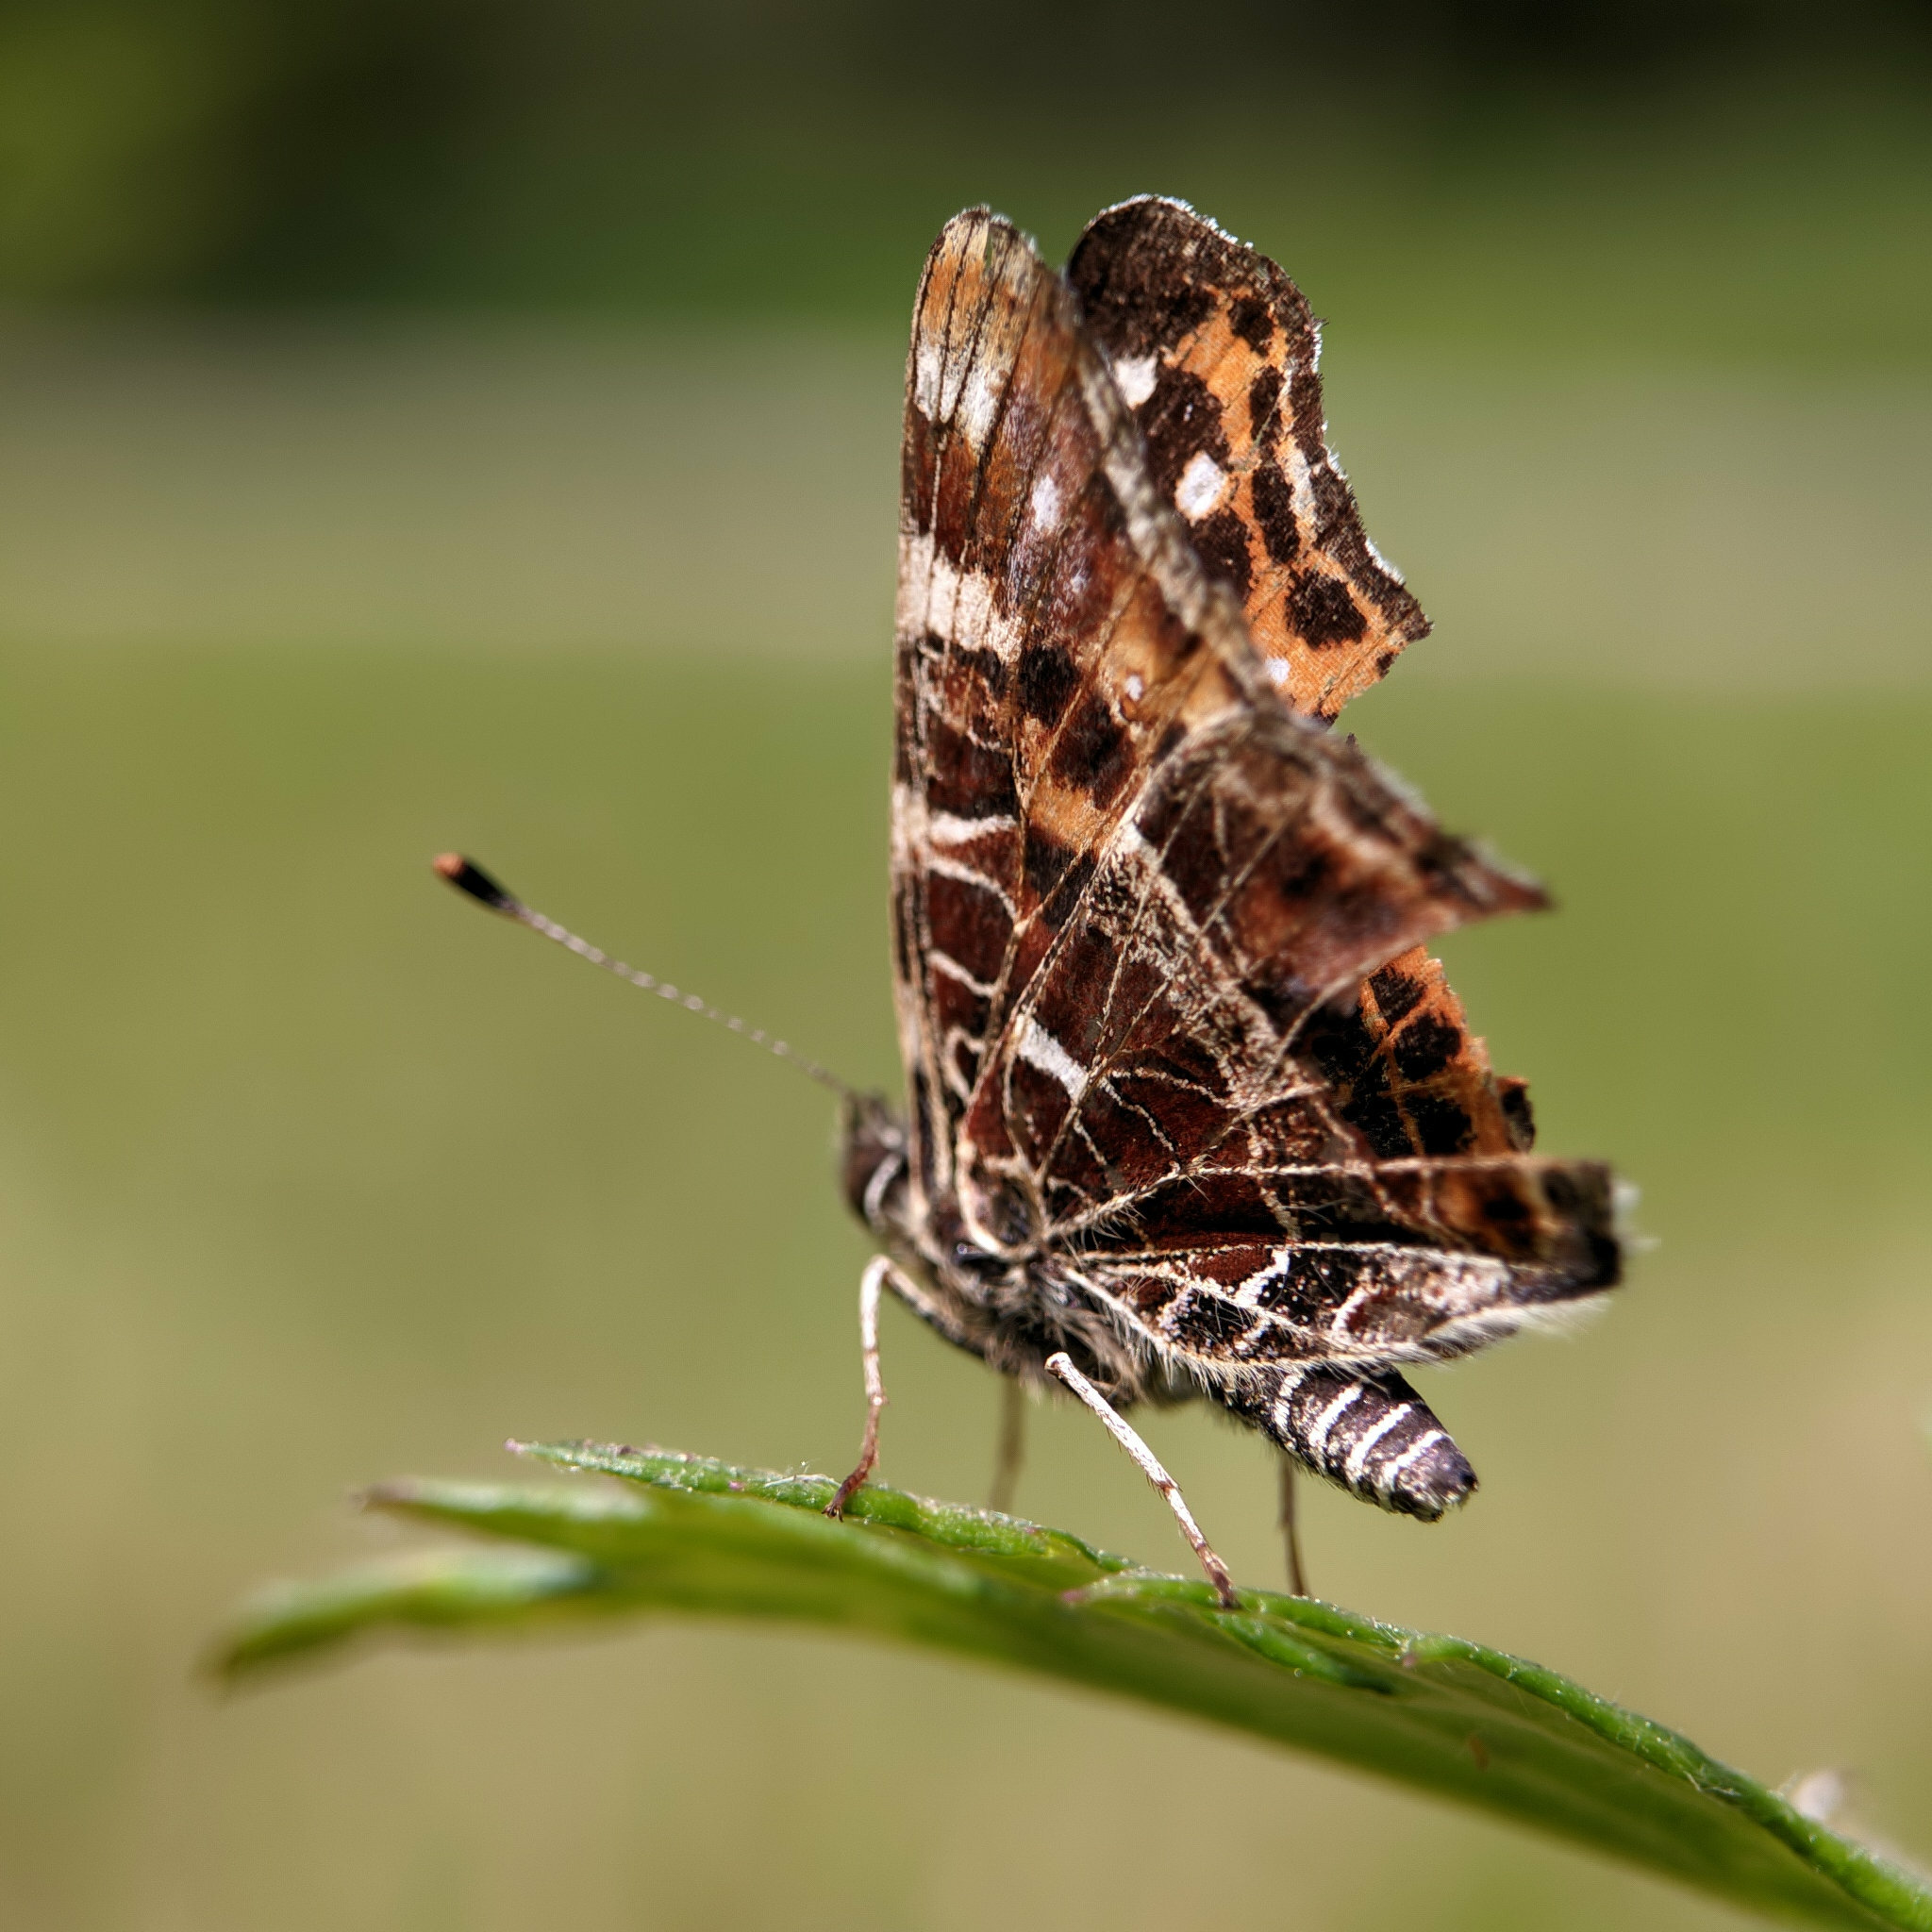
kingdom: Animalia
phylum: Arthropoda
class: Insecta
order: Lepidoptera
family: Nymphalidae
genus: Araschnia
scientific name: Araschnia levana
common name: Map butterfly
